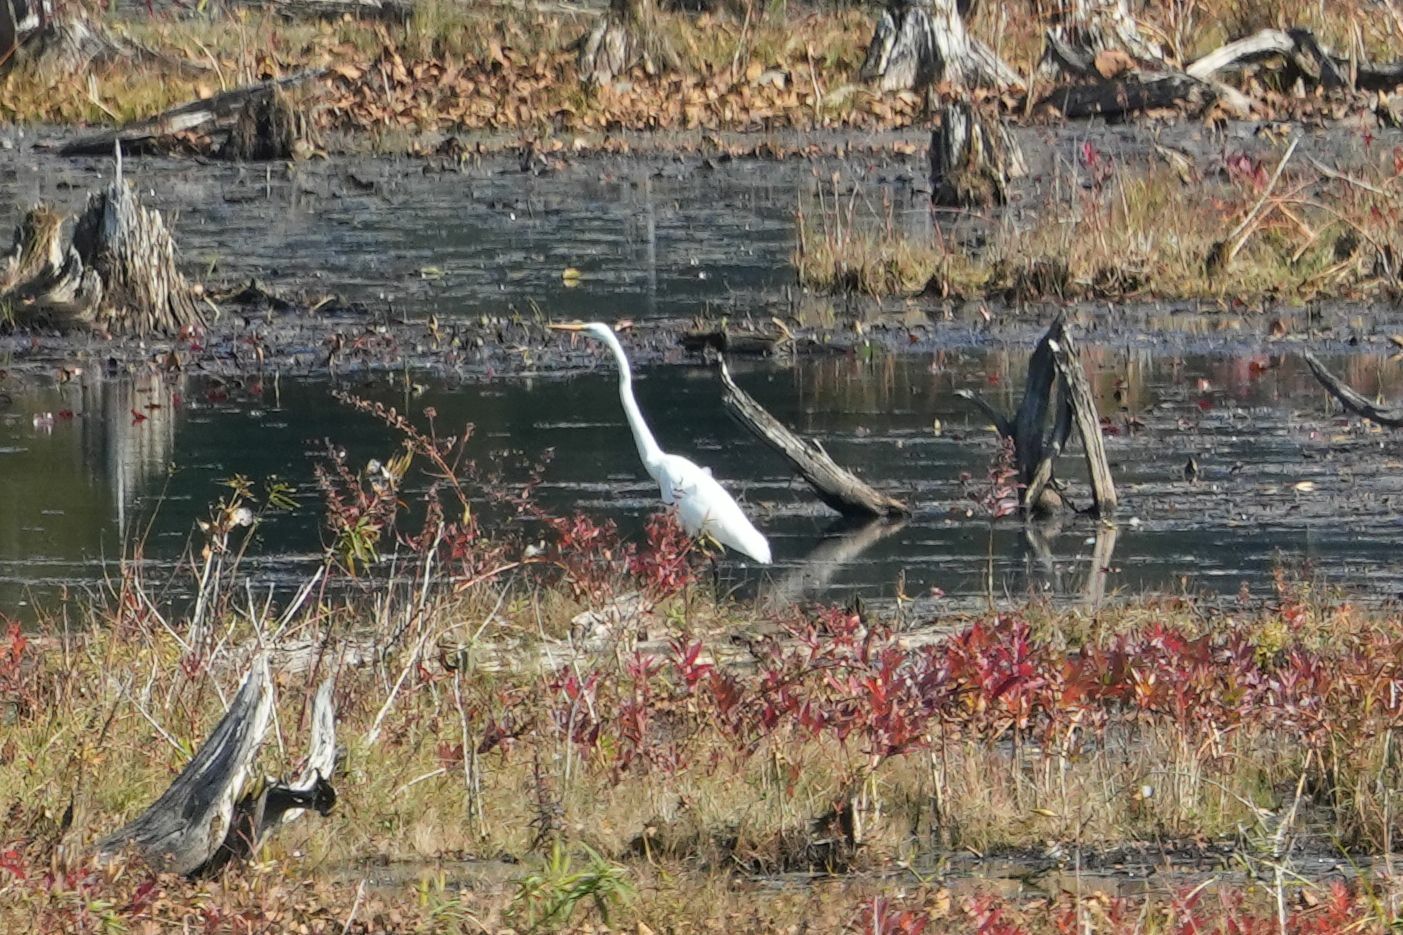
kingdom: Animalia
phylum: Chordata
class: Aves
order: Pelecaniformes
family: Ardeidae
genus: Ardea
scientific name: Ardea alba
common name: Great egret
